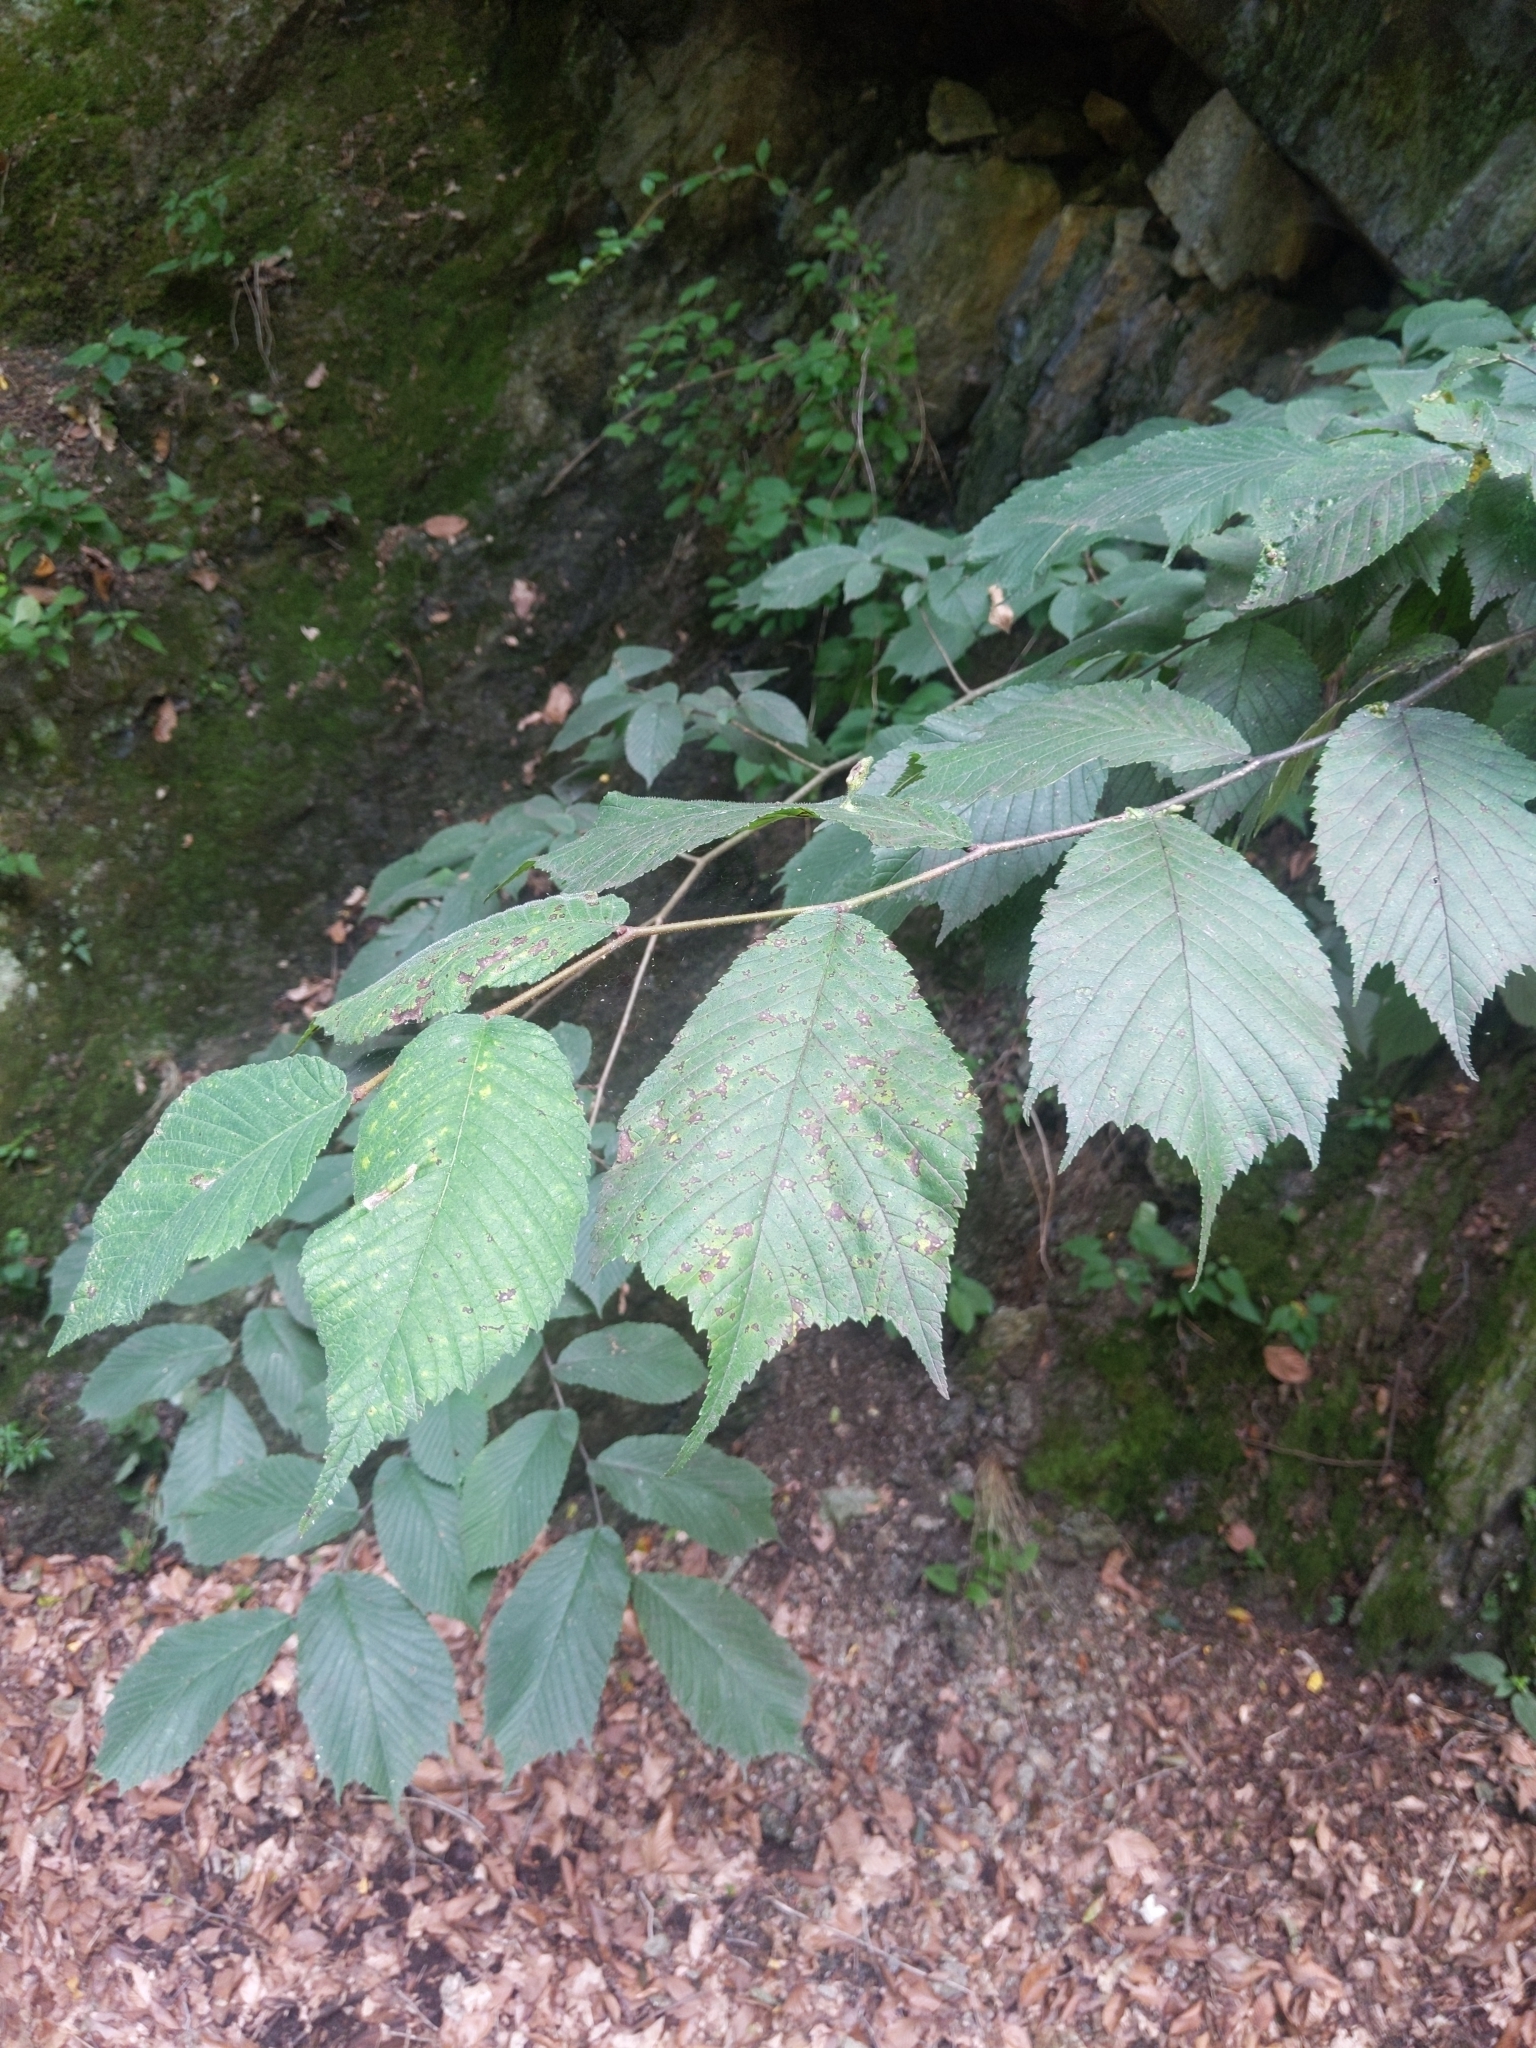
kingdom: Plantae
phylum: Tracheophyta
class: Magnoliopsida
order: Rosales
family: Ulmaceae
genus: Ulmus
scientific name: Ulmus glabra
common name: Wych elm
